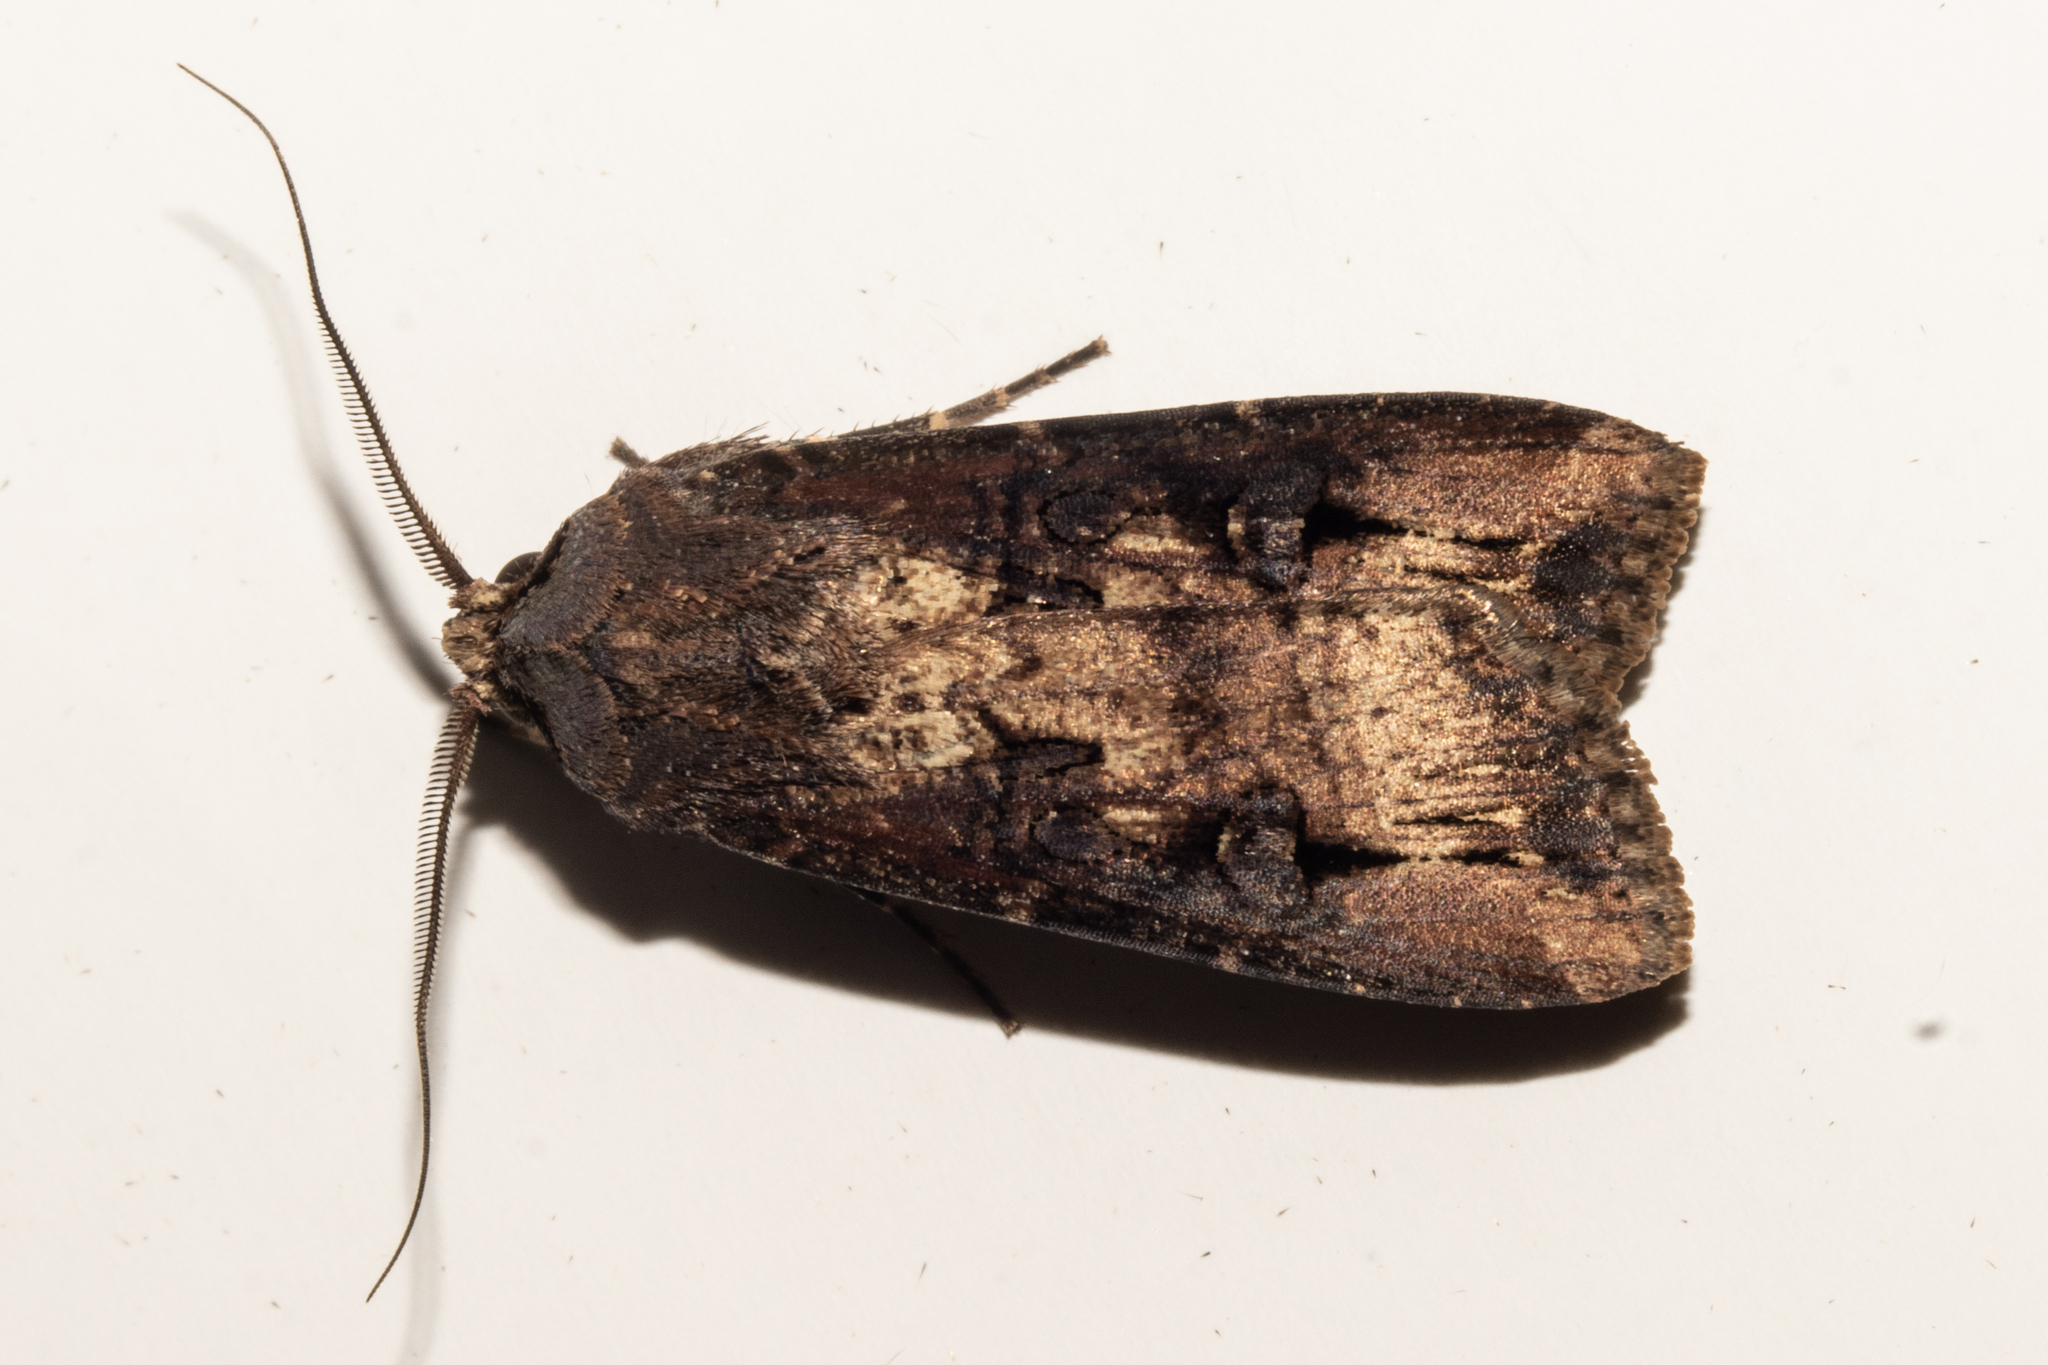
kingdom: Animalia
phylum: Arthropoda
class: Insecta
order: Lepidoptera
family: Noctuidae
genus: Agrotis
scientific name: Agrotis ipsilon
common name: Dark sword-grass
